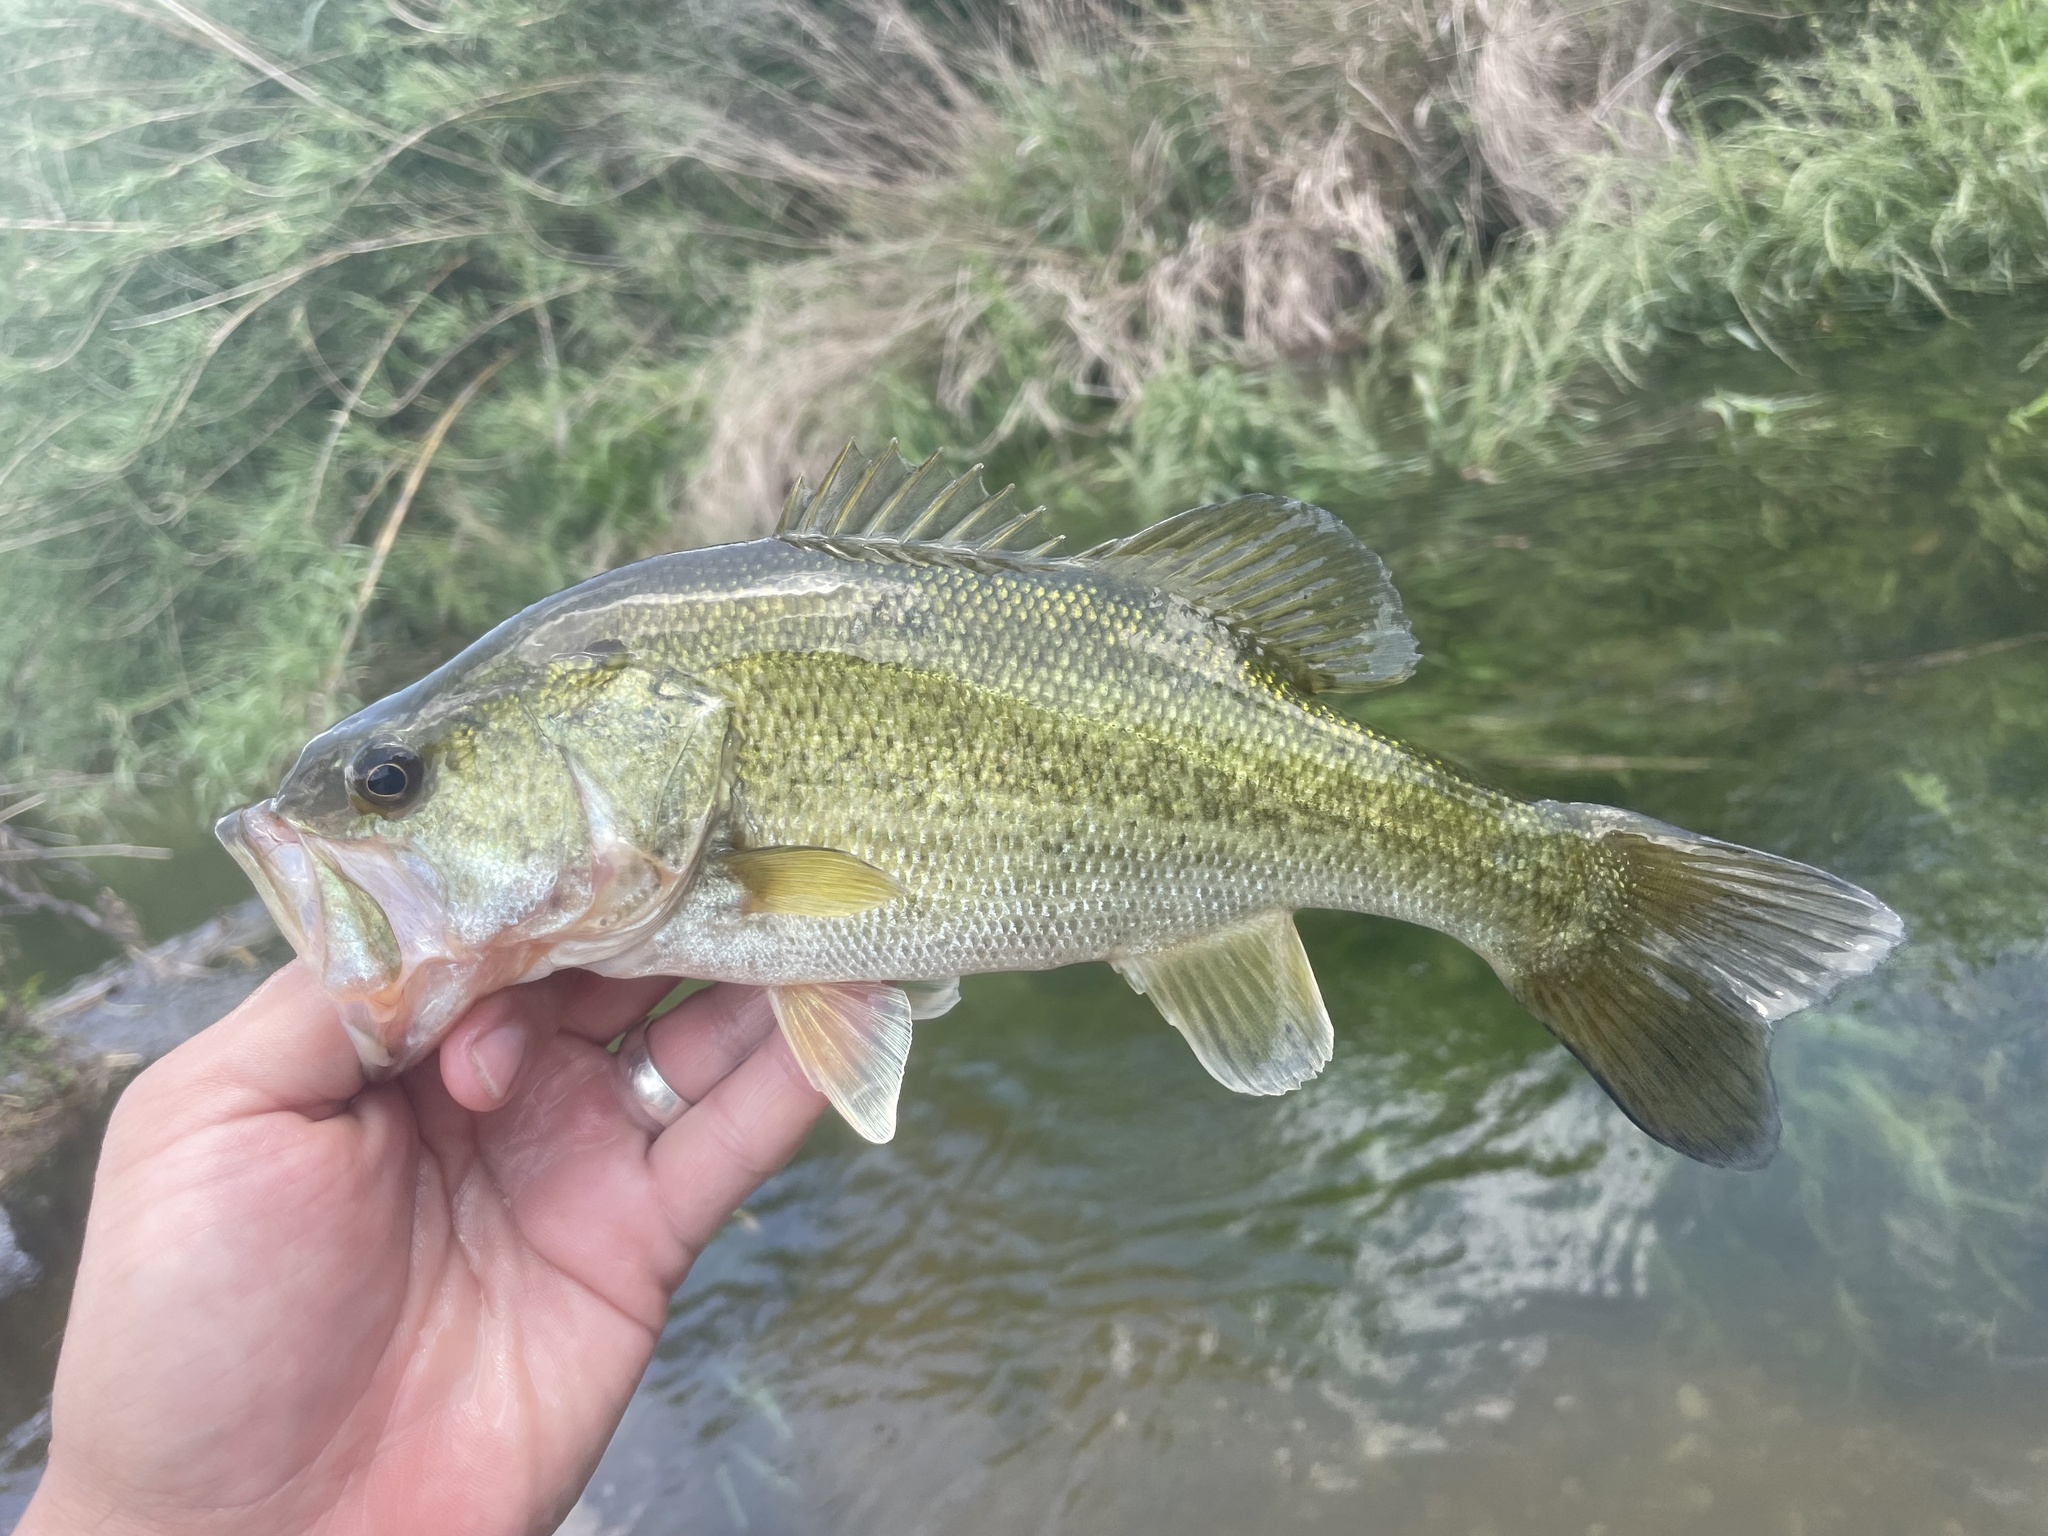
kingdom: Animalia
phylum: Chordata
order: Perciformes
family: Centrarchidae
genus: Micropterus
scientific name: Micropterus
